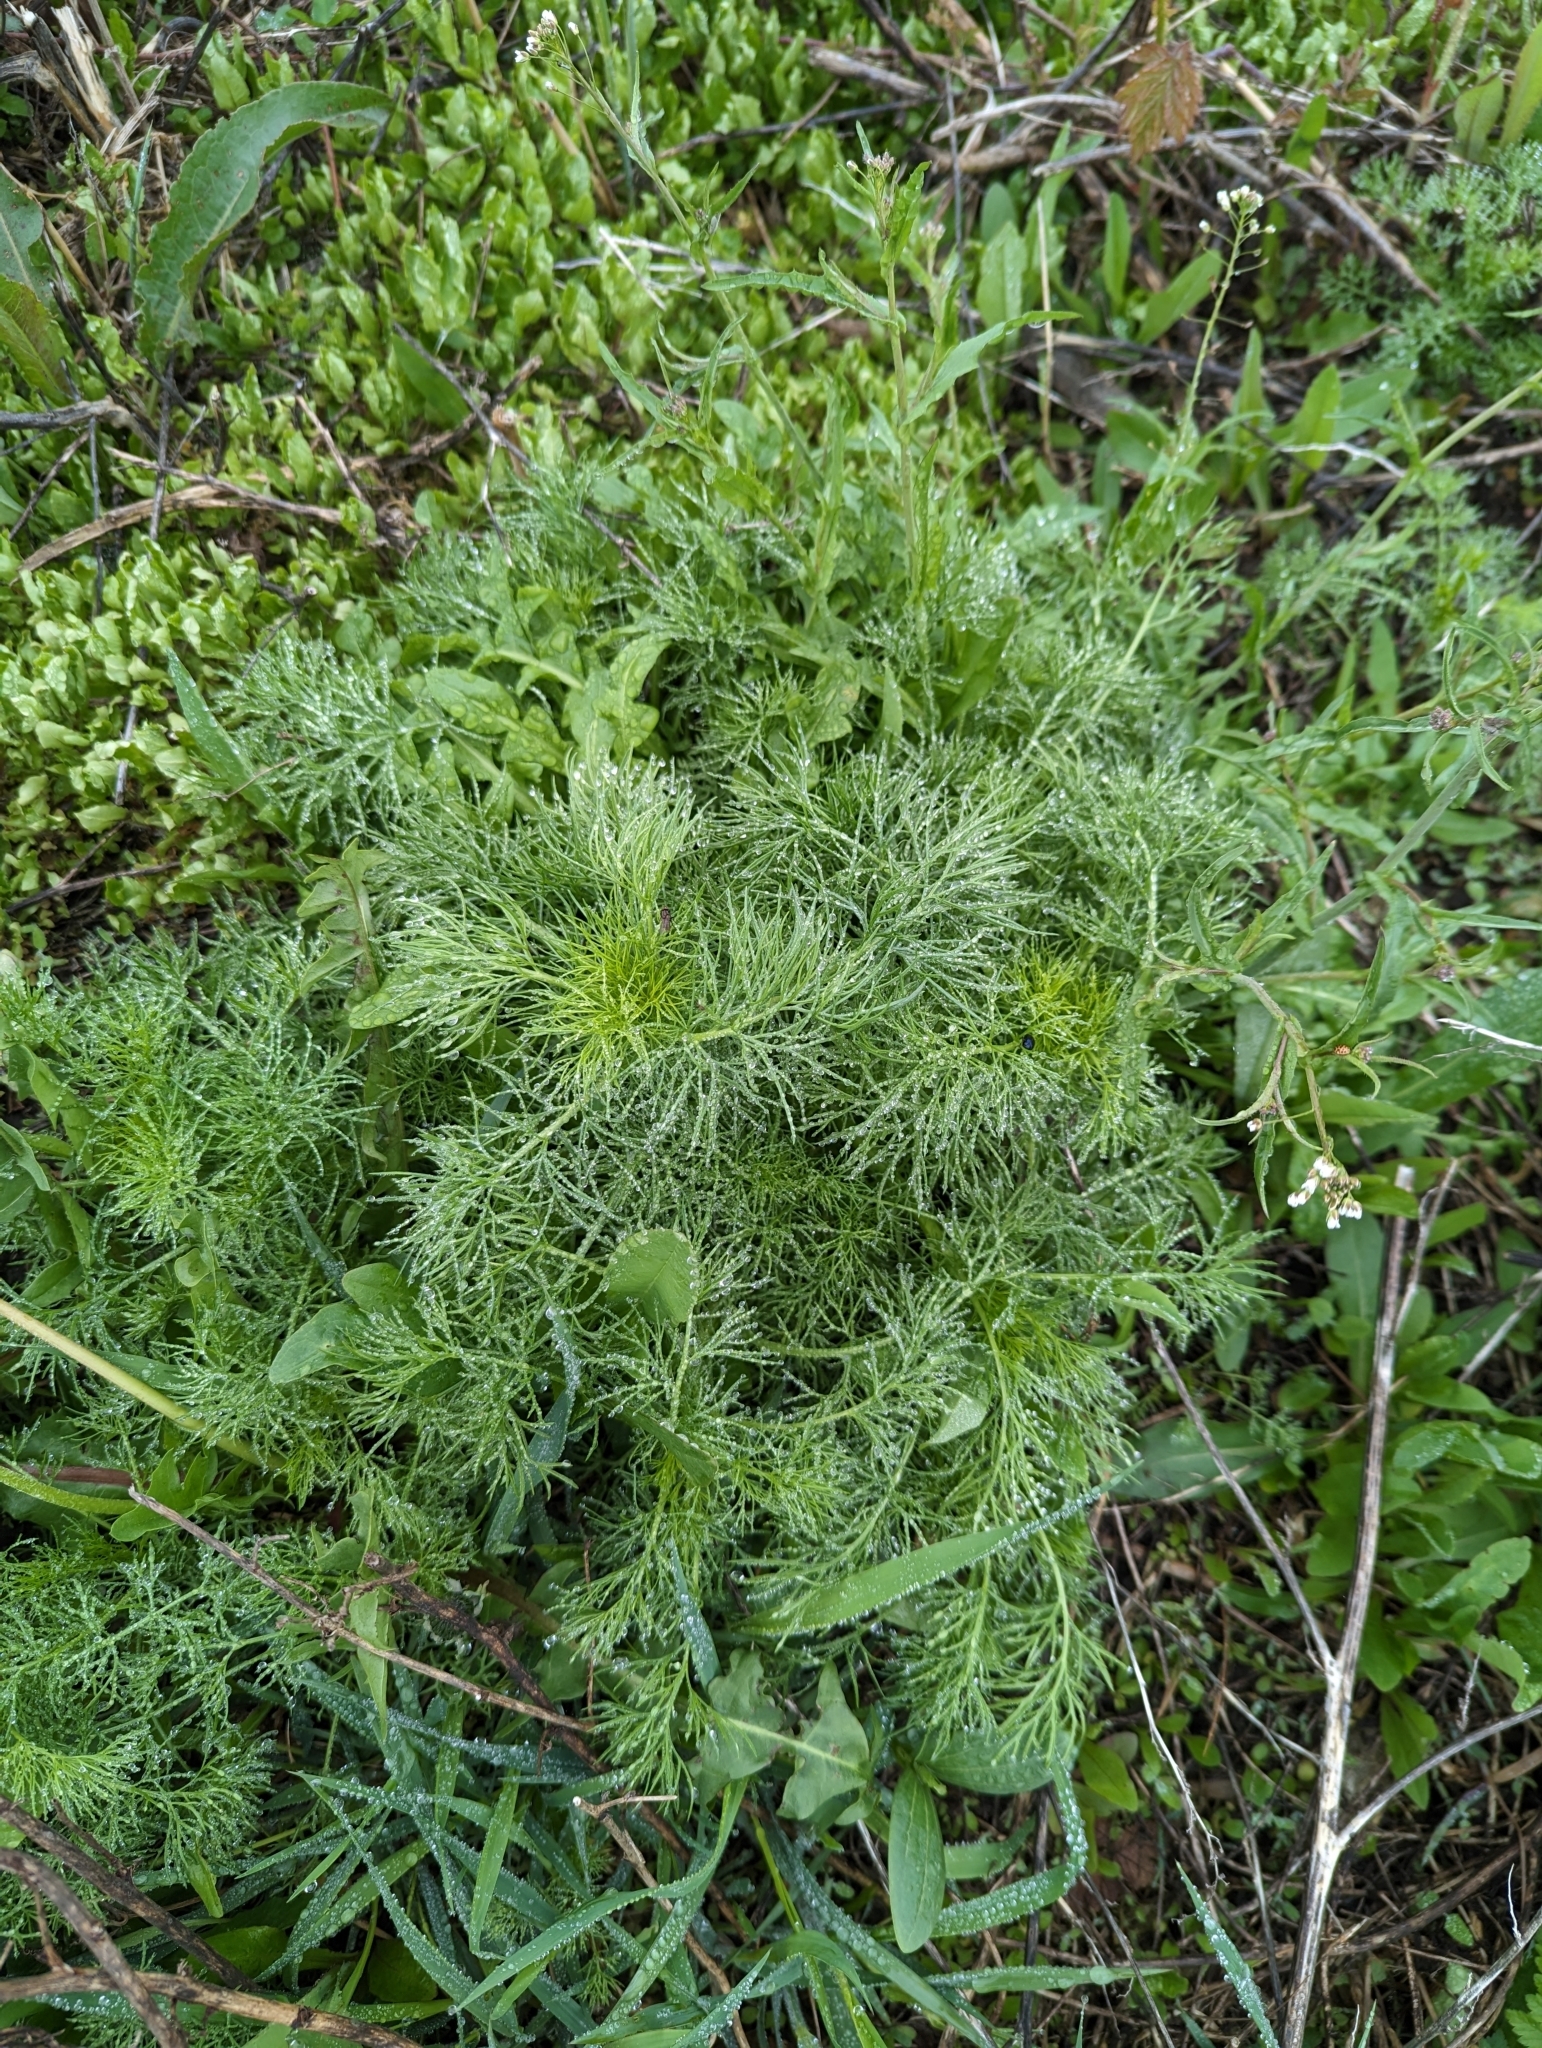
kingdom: Plantae
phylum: Tracheophyta
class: Magnoliopsida
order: Asterales
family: Asteraceae
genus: Tripleurospermum
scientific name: Tripleurospermum inodorum
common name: Scentless mayweed
